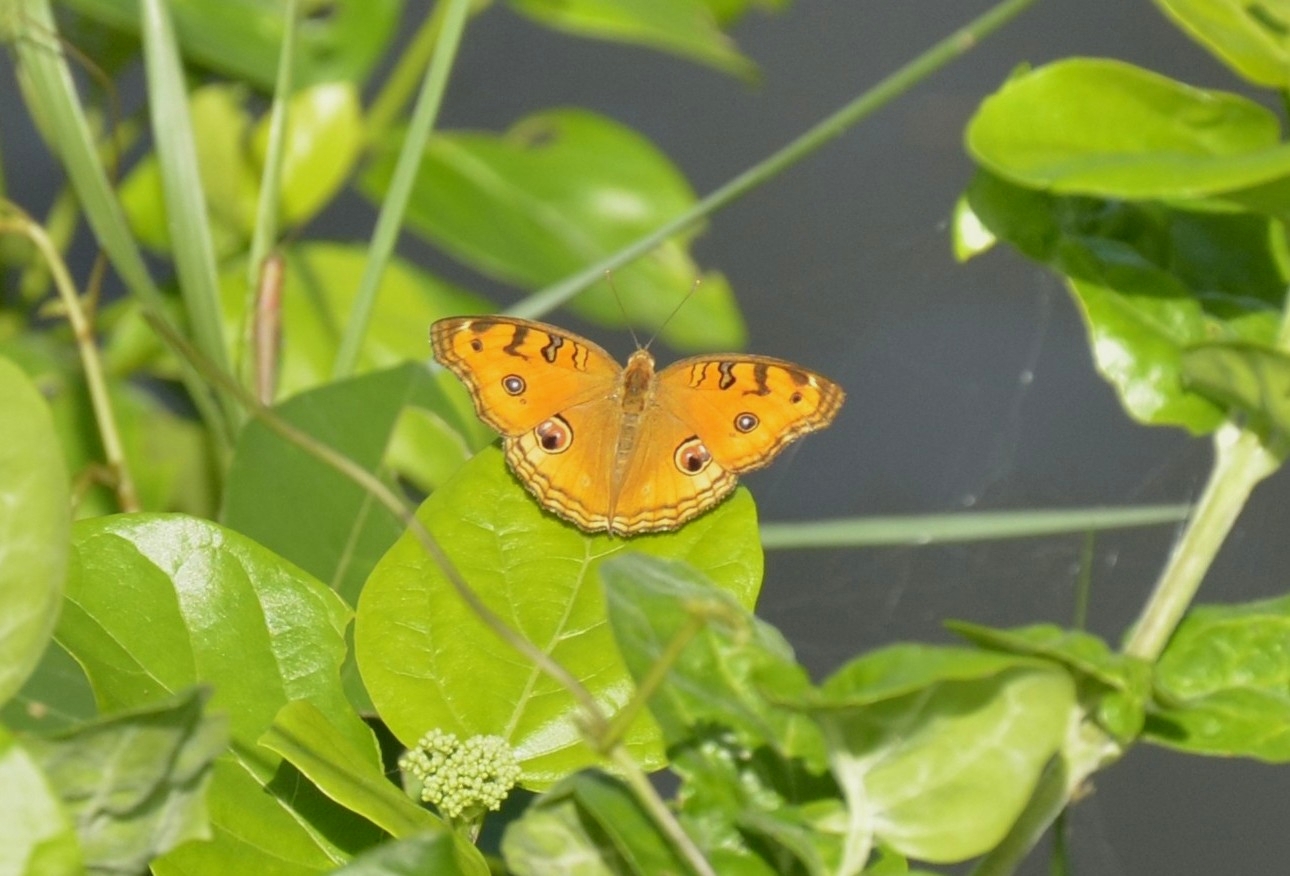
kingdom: Animalia
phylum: Arthropoda
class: Insecta
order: Lepidoptera
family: Nymphalidae
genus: Junonia
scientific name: Junonia almana
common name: Peacock pansy
